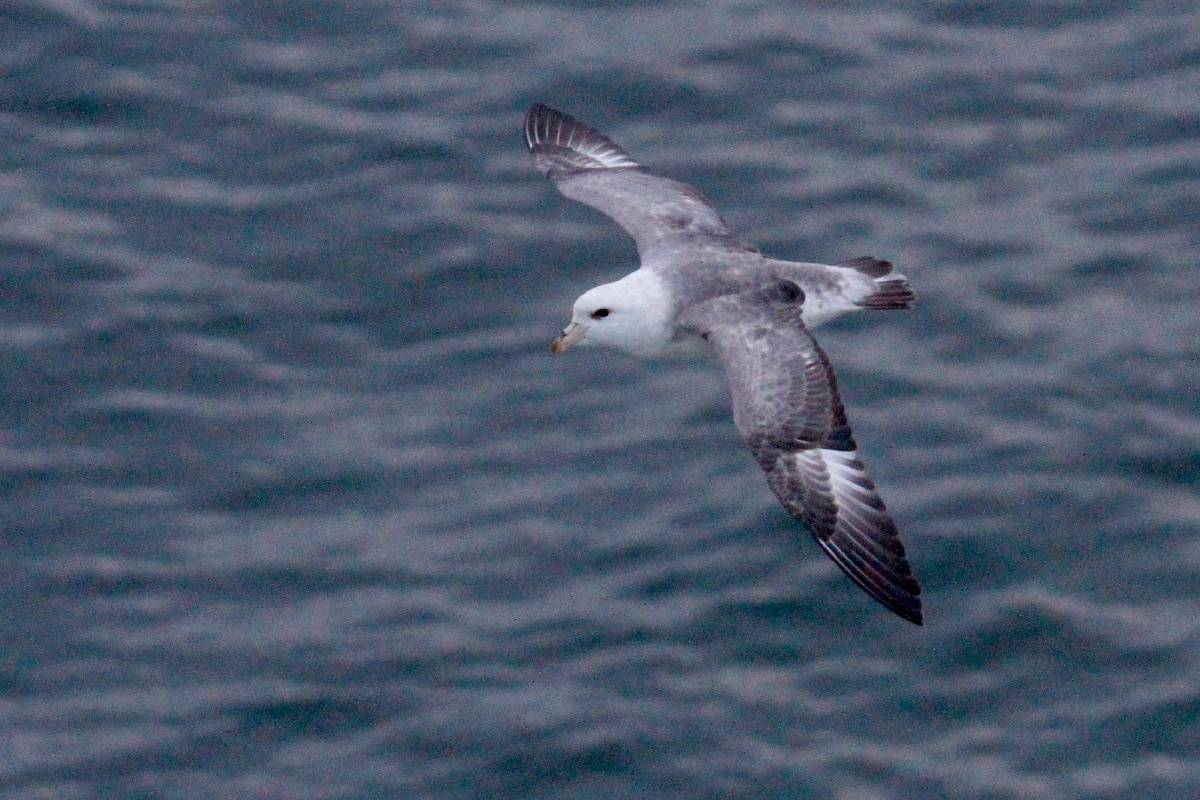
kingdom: Animalia
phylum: Chordata
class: Aves
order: Procellariiformes
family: Procellariidae
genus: Fulmarus
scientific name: Fulmarus glacialis
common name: Northern fulmar
